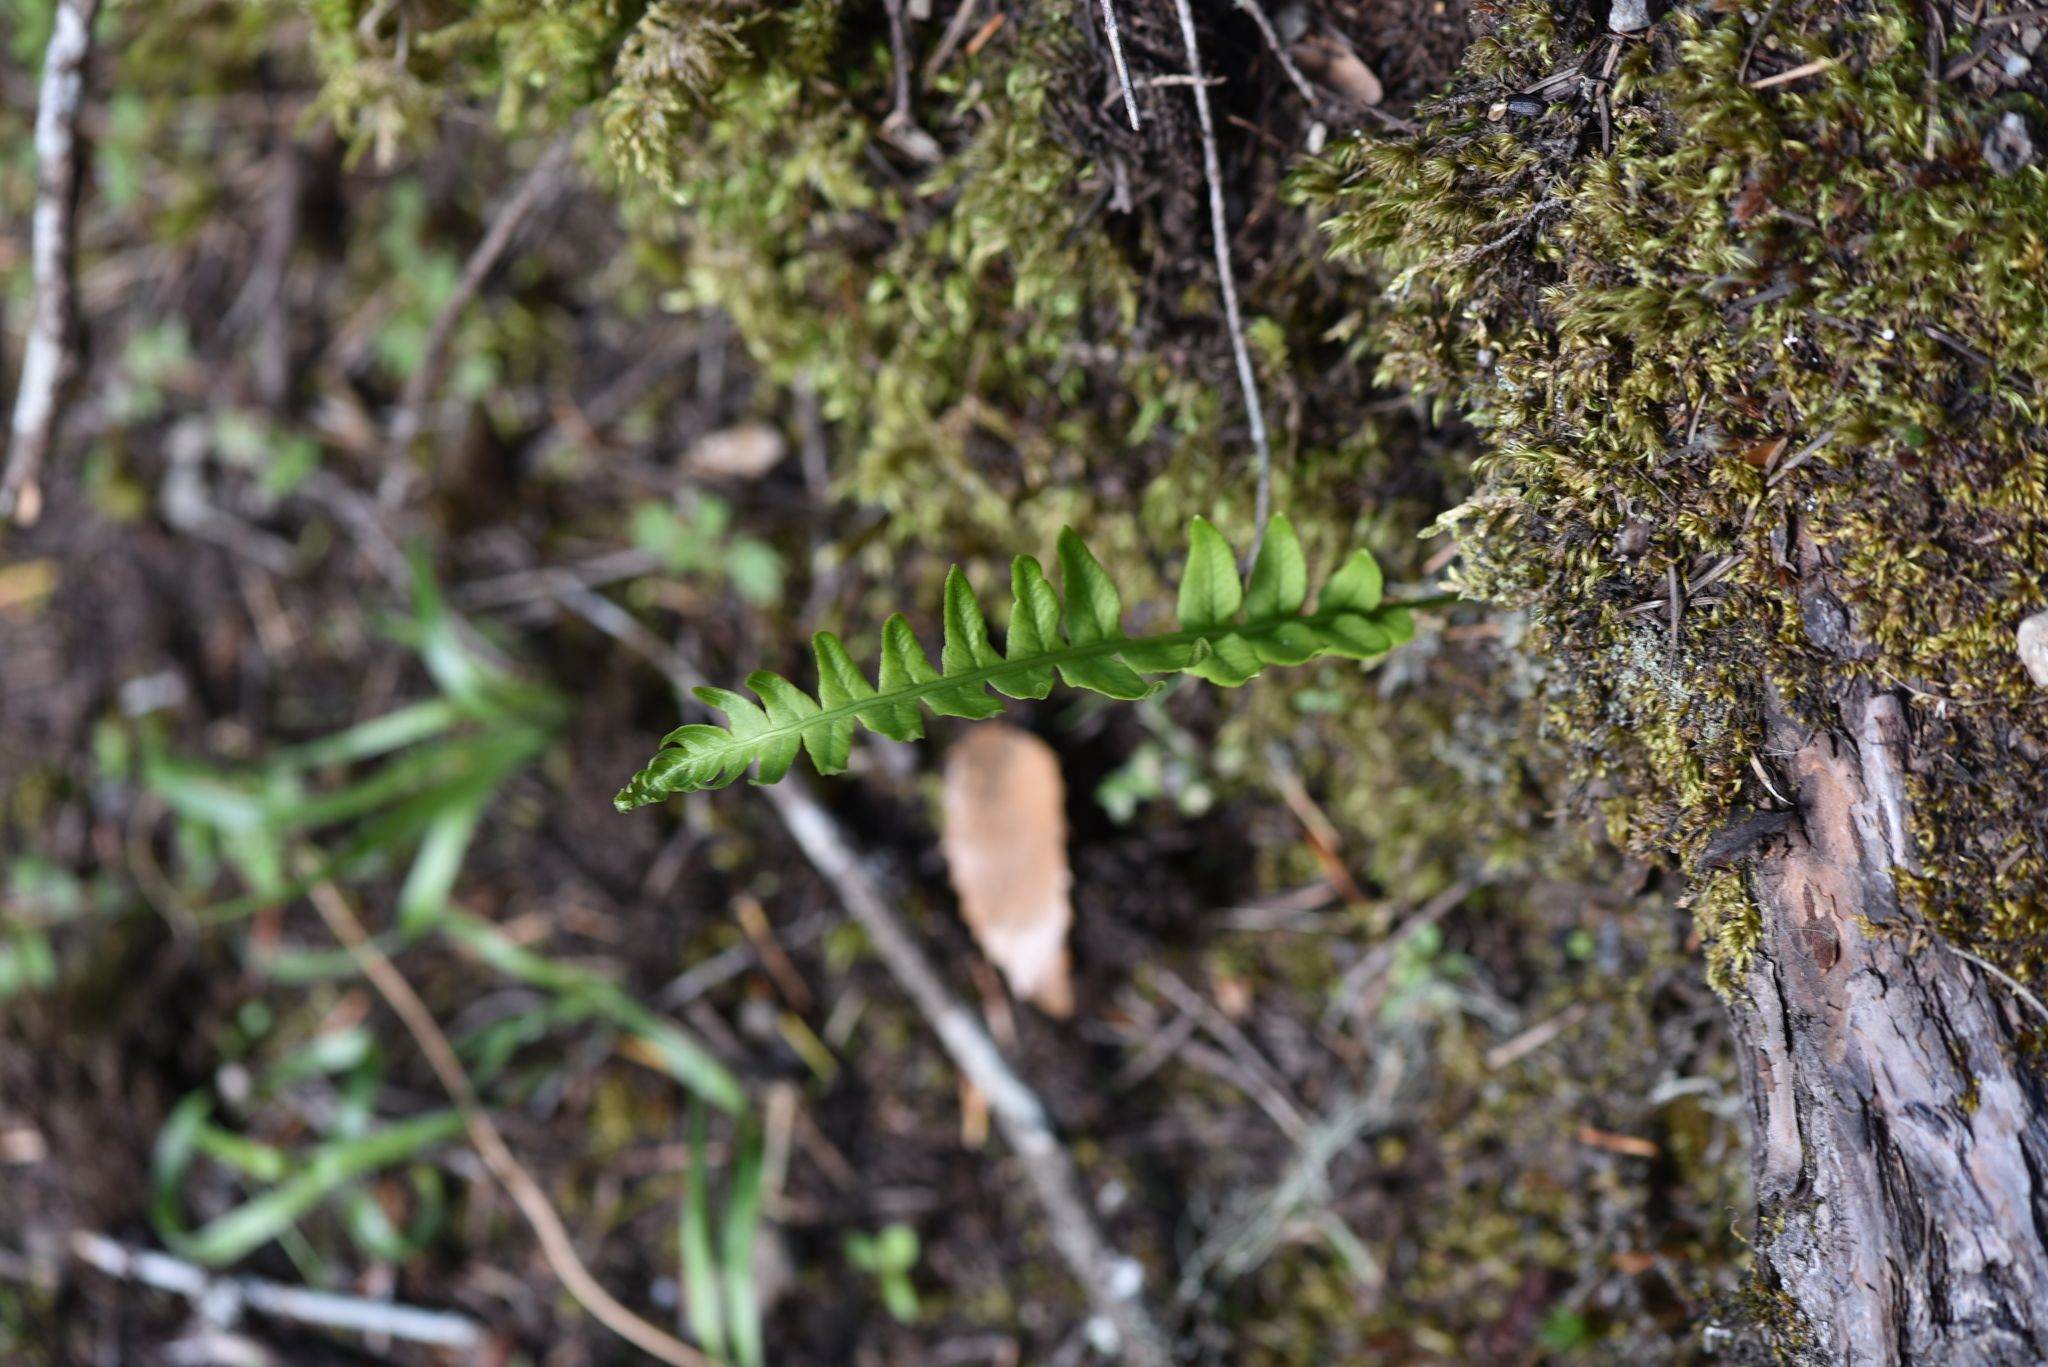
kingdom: Plantae
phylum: Tracheophyta
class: Polypodiopsida
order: Polypodiales
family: Polypodiaceae
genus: Polypodium
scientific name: Polypodium glycyrrhiza
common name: Licorice fern
